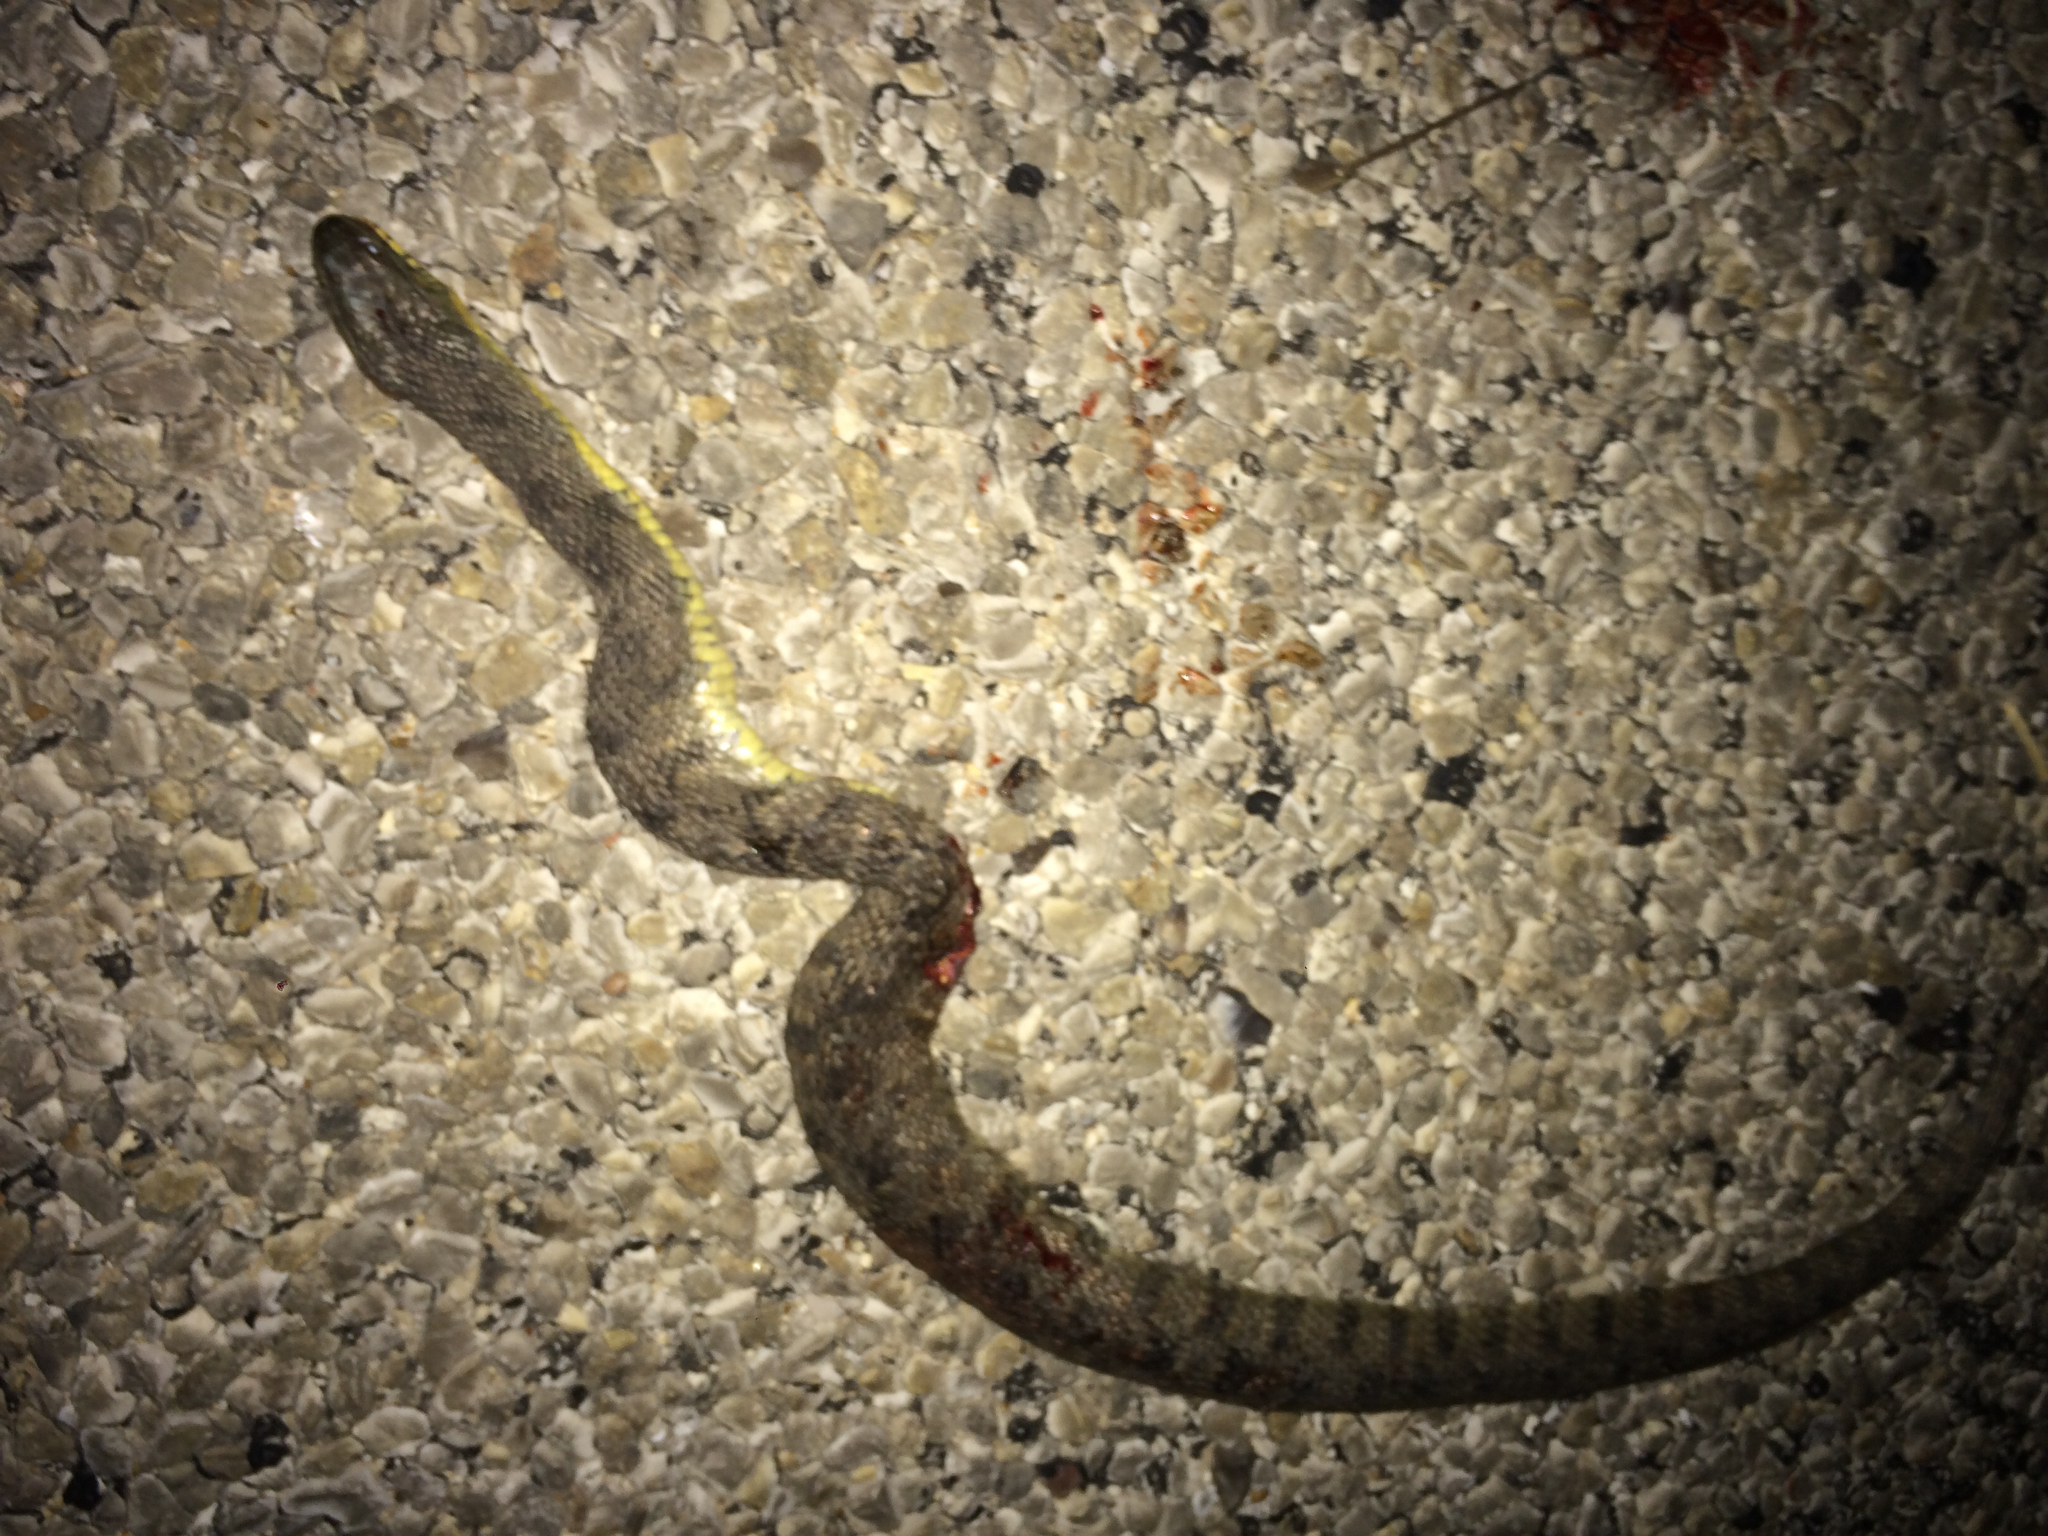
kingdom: Animalia
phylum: Chordata
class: Squamata
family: Colubridae
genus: Nerodia
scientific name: Nerodia rhombifer
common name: Diamondback water snake
